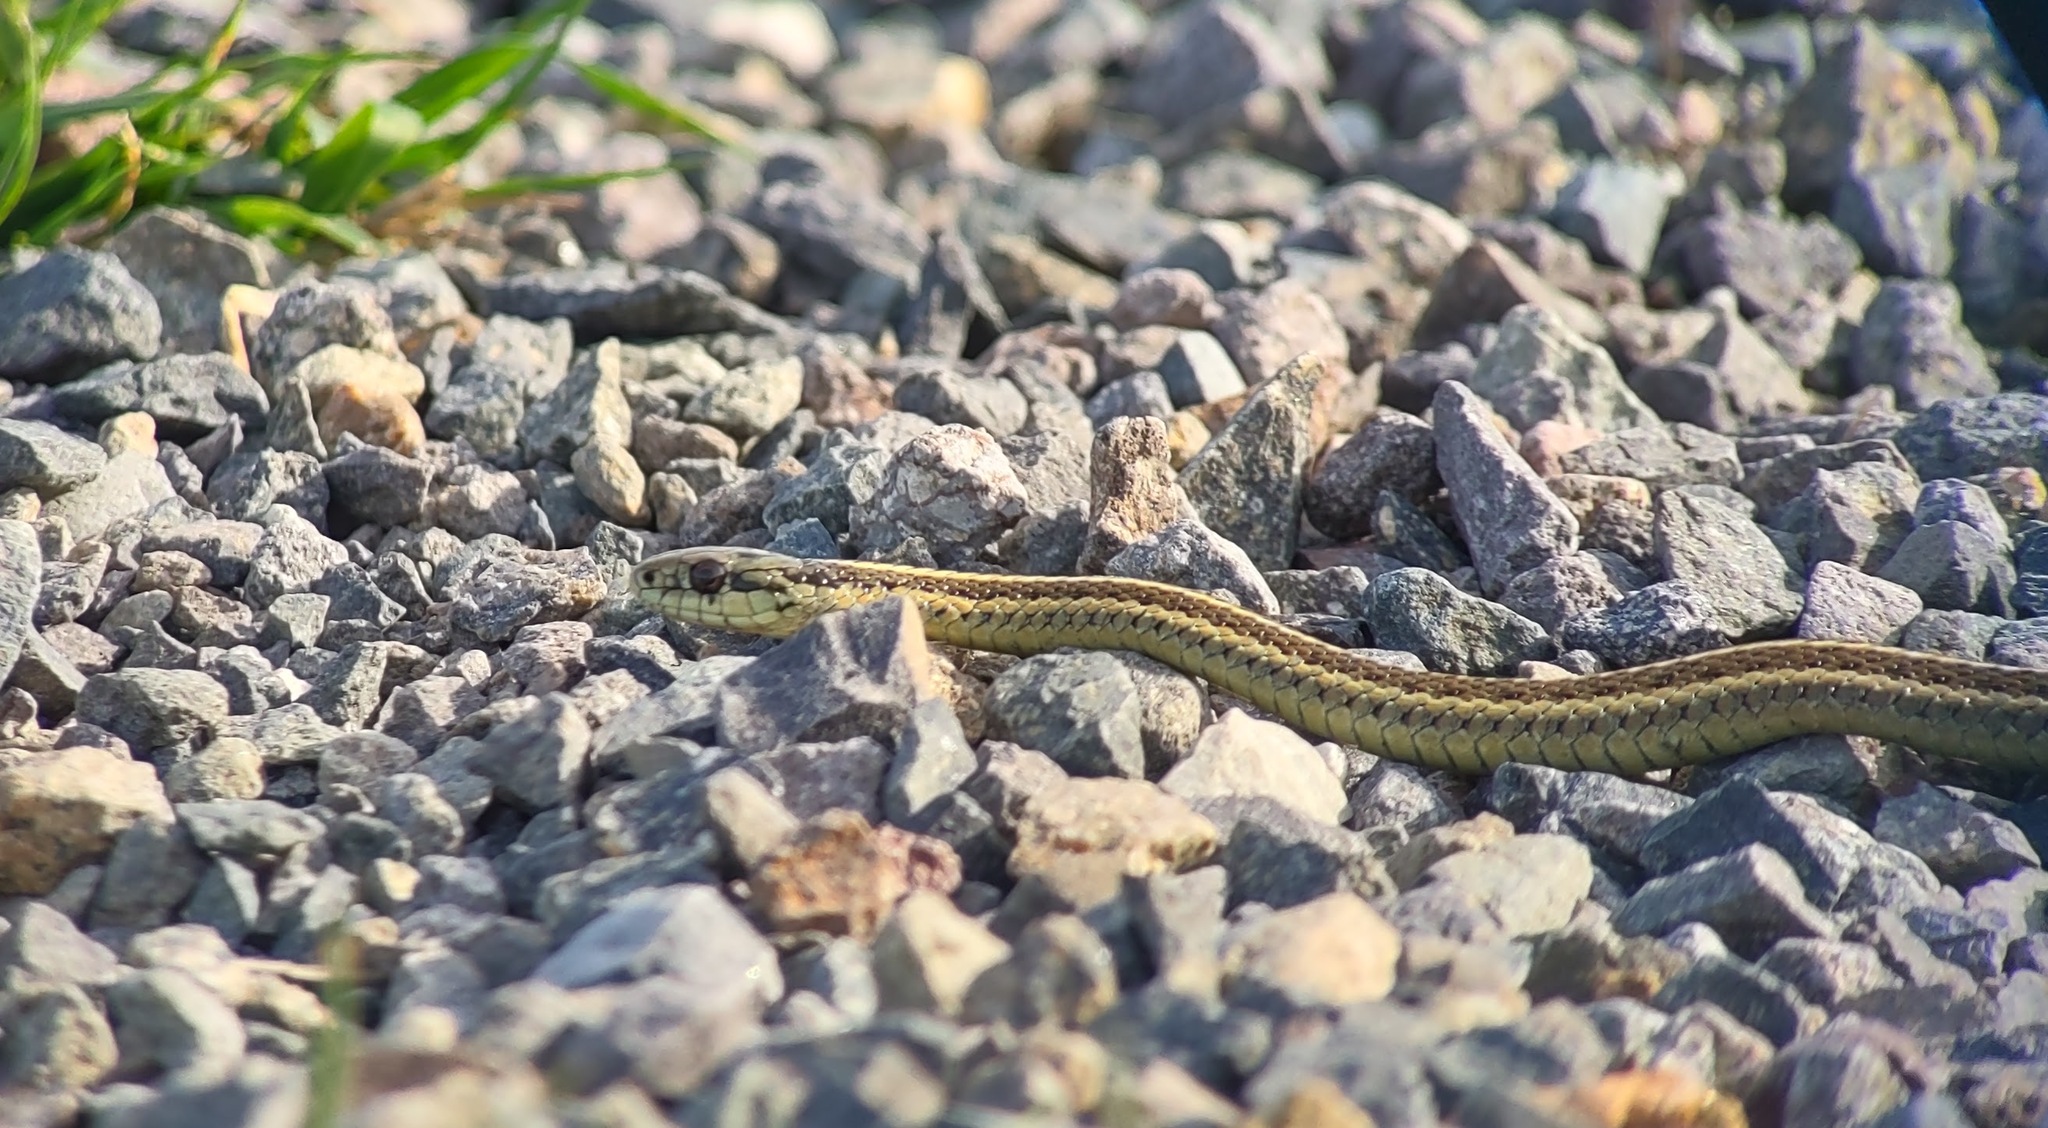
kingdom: Animalia
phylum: Chordata
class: Squamata
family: Colubridae
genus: Thamnophis
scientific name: Thamnophis ordinoides
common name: Northwestern garter snake
